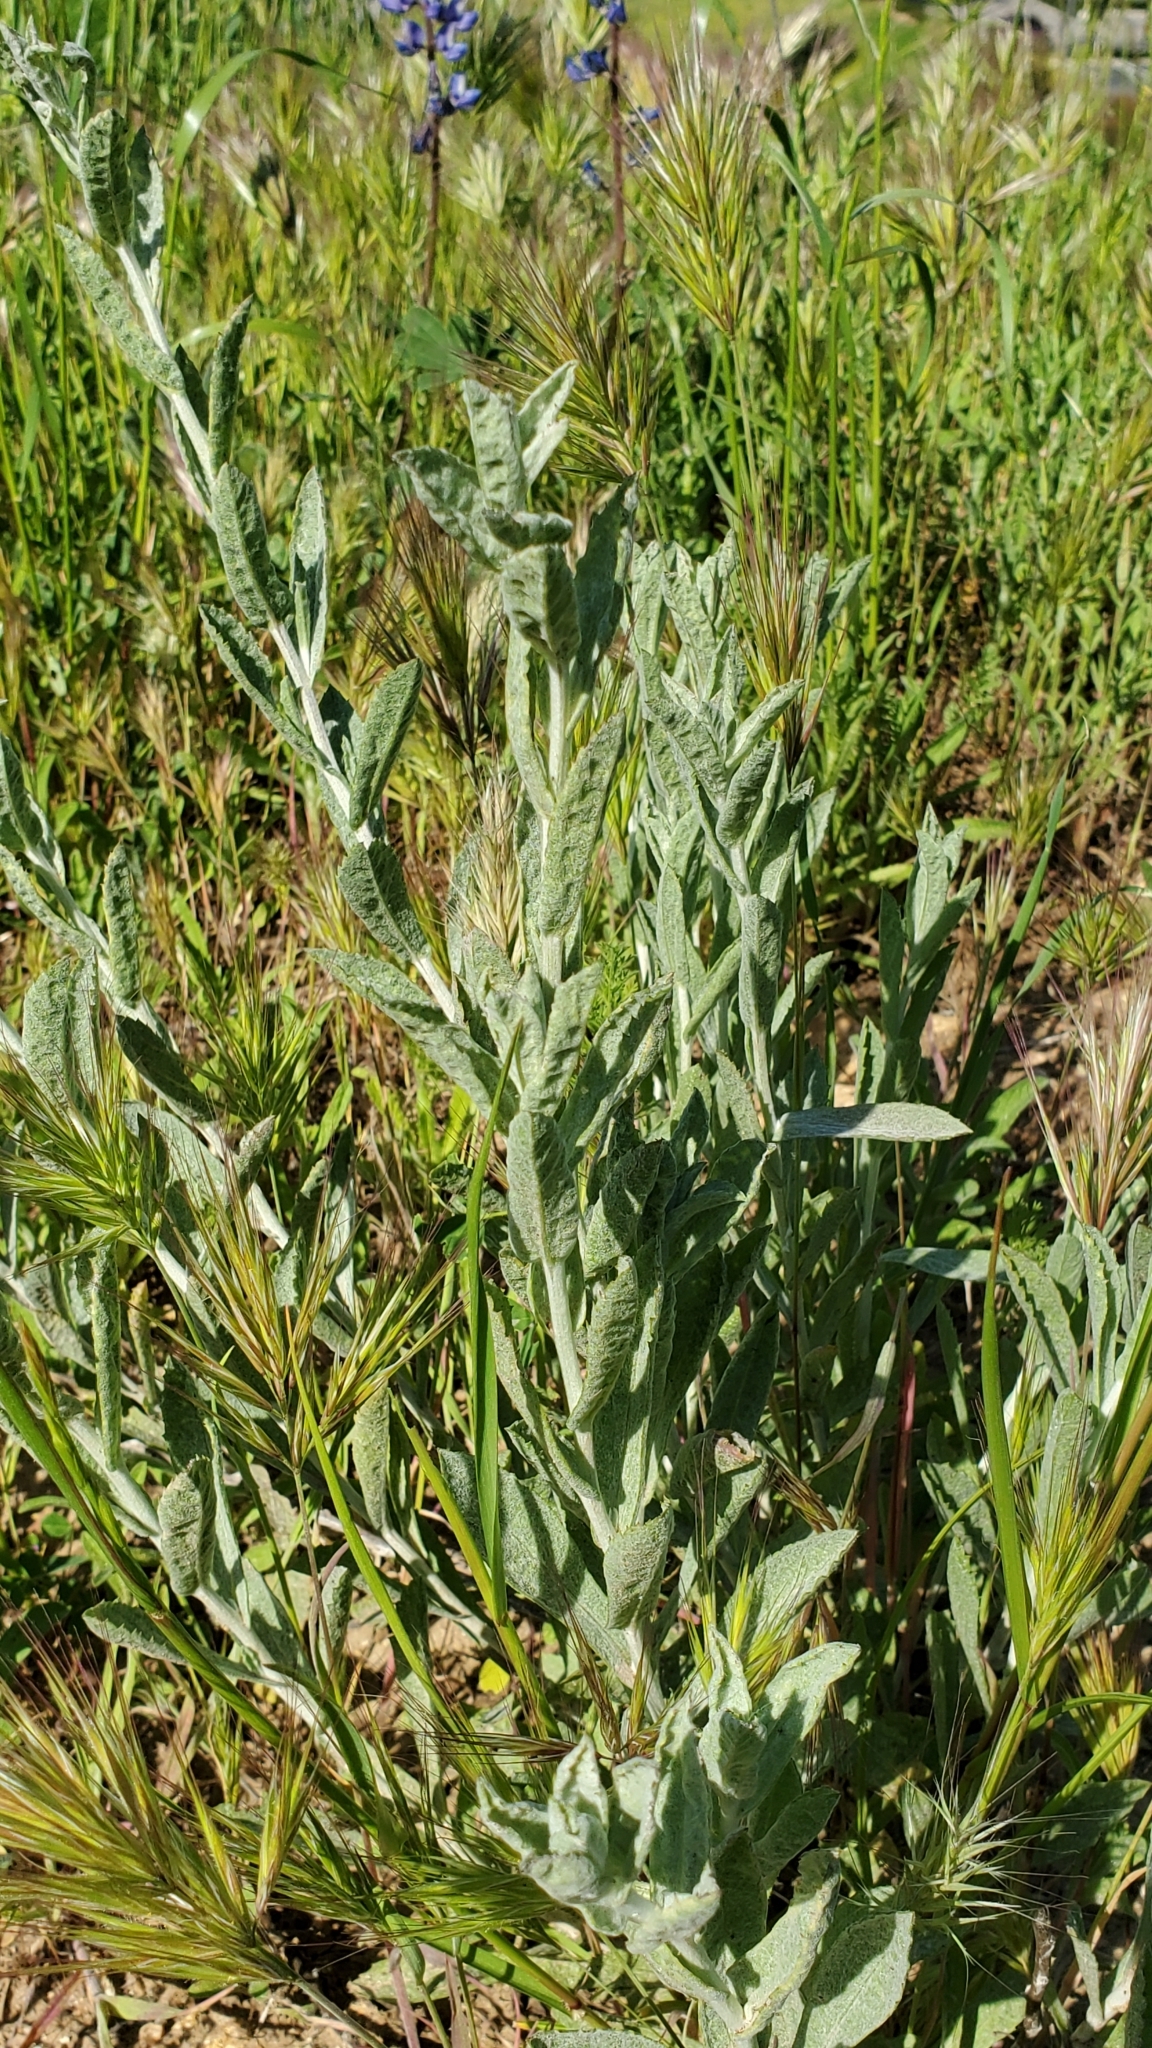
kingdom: Plantae
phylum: Tracheophyta
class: Magnoliopsida
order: Asterales
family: Asteraceae
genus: Corethrogyne
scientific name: Corethrogyne filaginifolia
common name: Sand-aster
